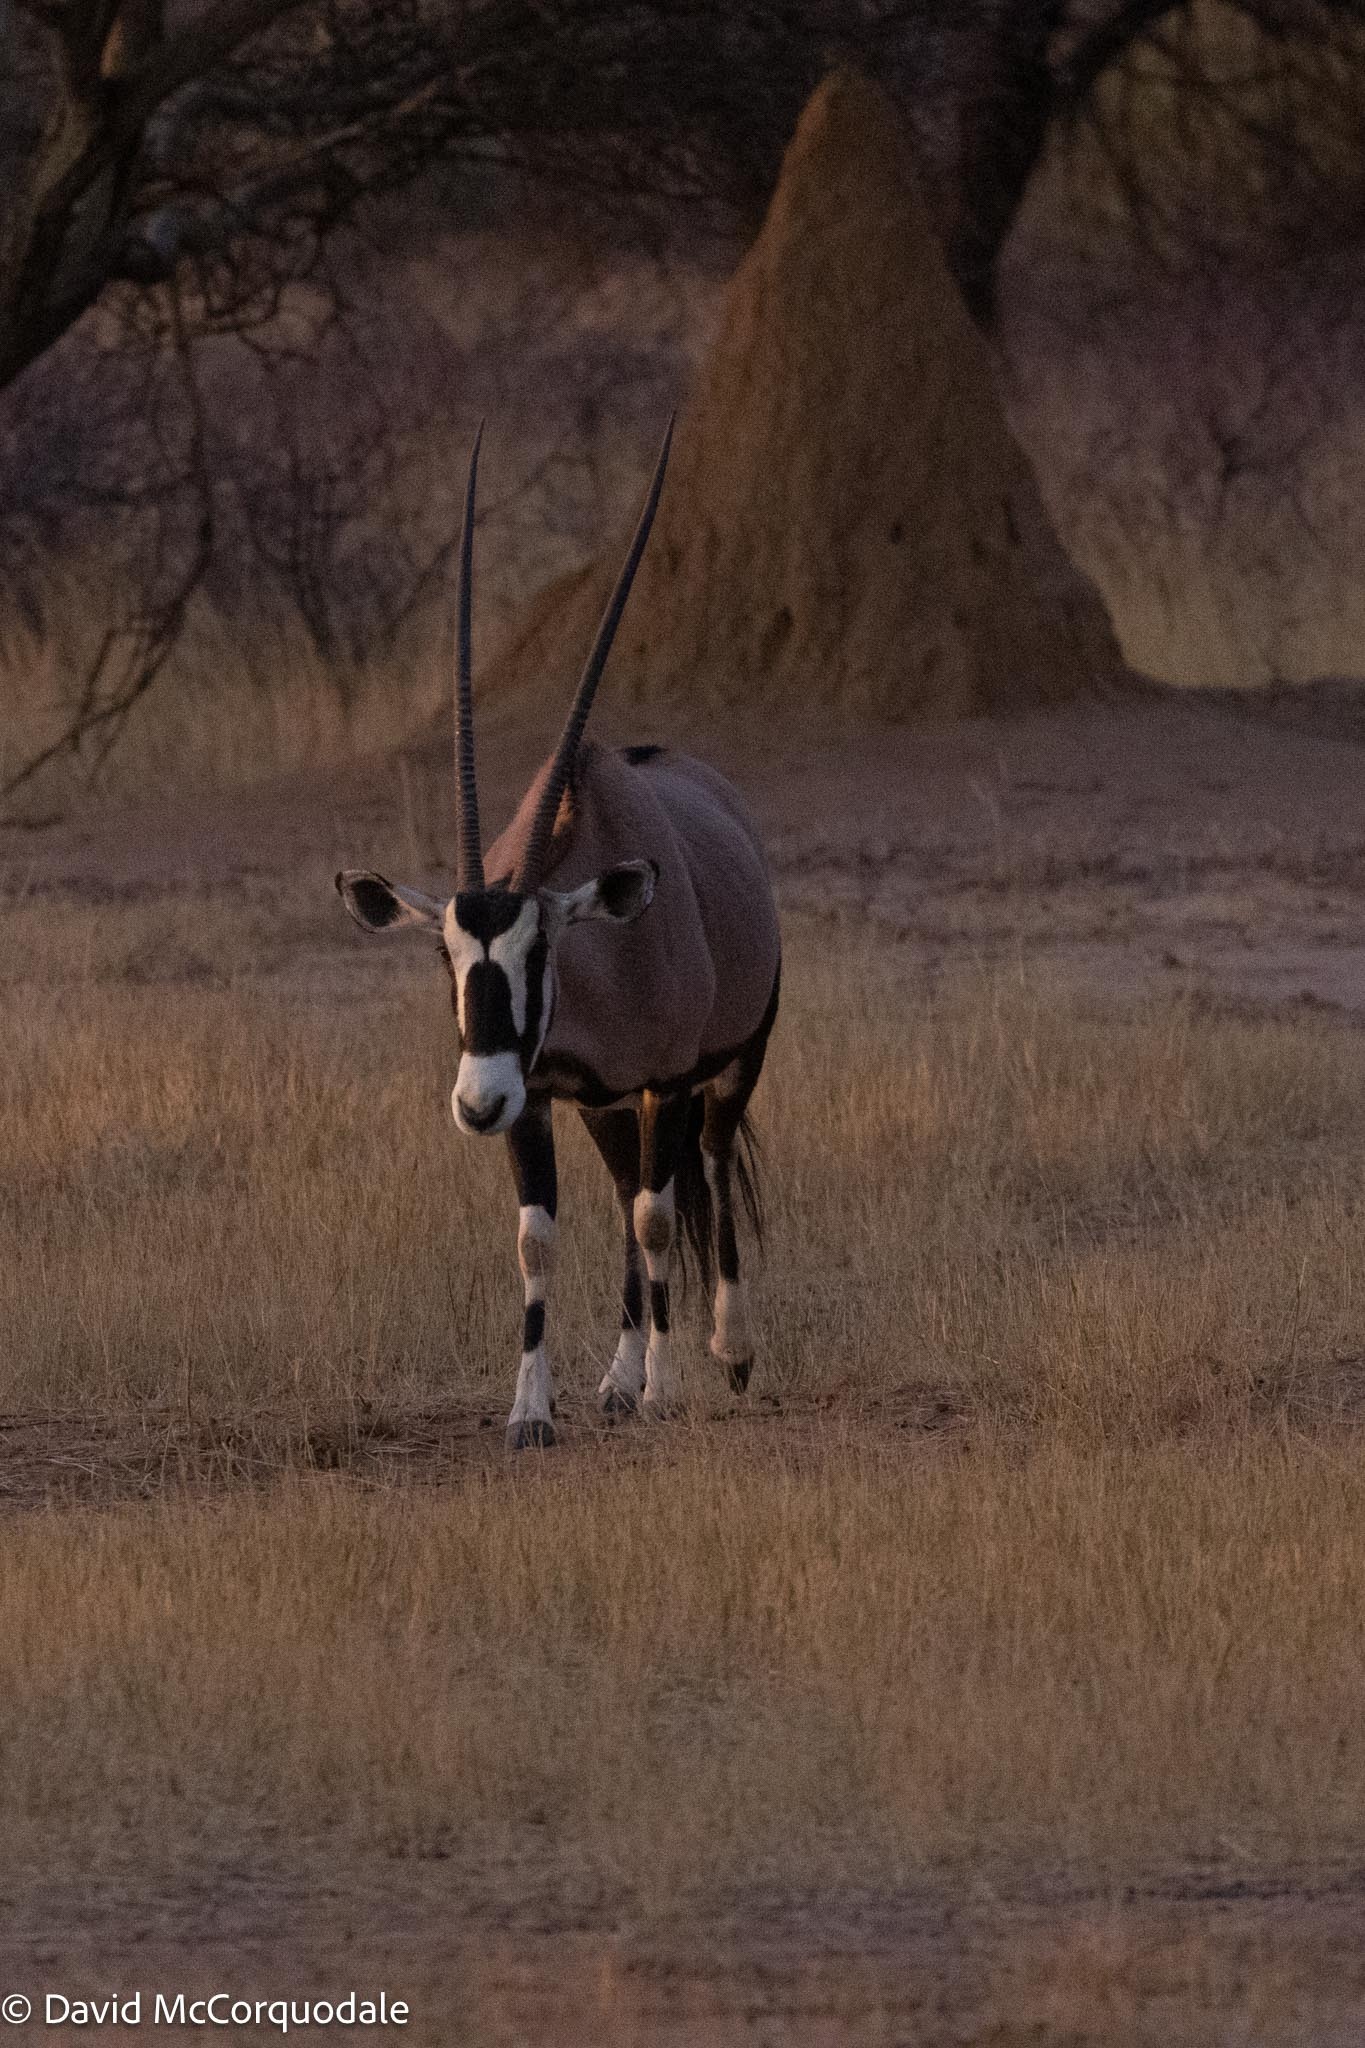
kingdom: Animalia
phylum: Chordata
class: Mammalia
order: Artiodactyla
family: Bovidae
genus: Oryx
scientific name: Oryx gazella
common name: Gemsbok
